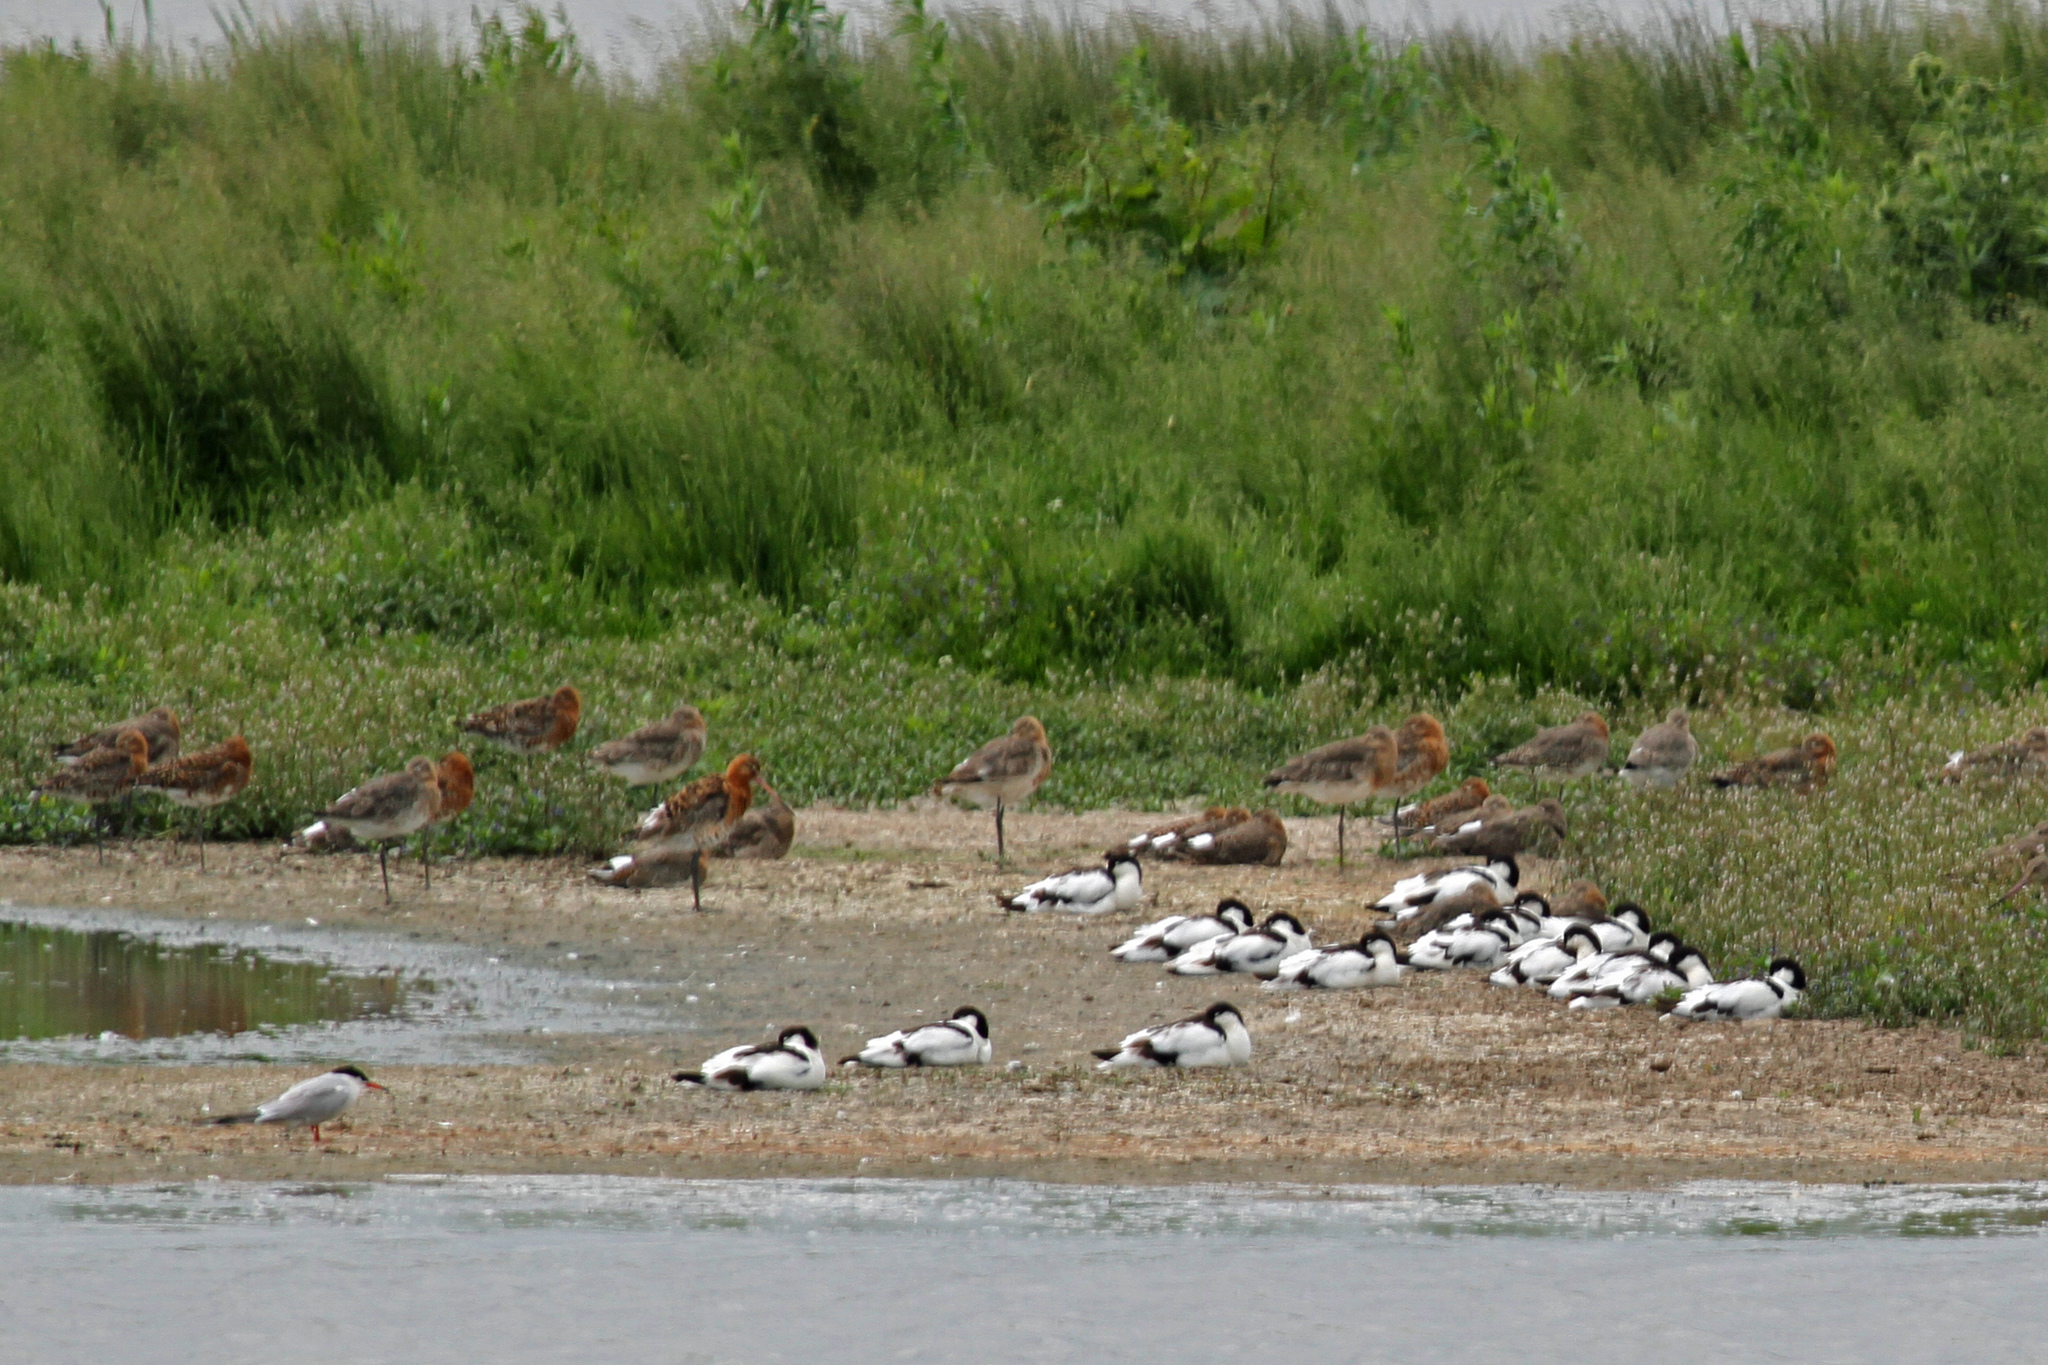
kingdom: Animalia
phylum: Chordata
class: Aves
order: Charadriiformes
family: Recurvirostridae
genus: Recurvirostra
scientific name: Recurvirostra avosetta
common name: Pied avocet
